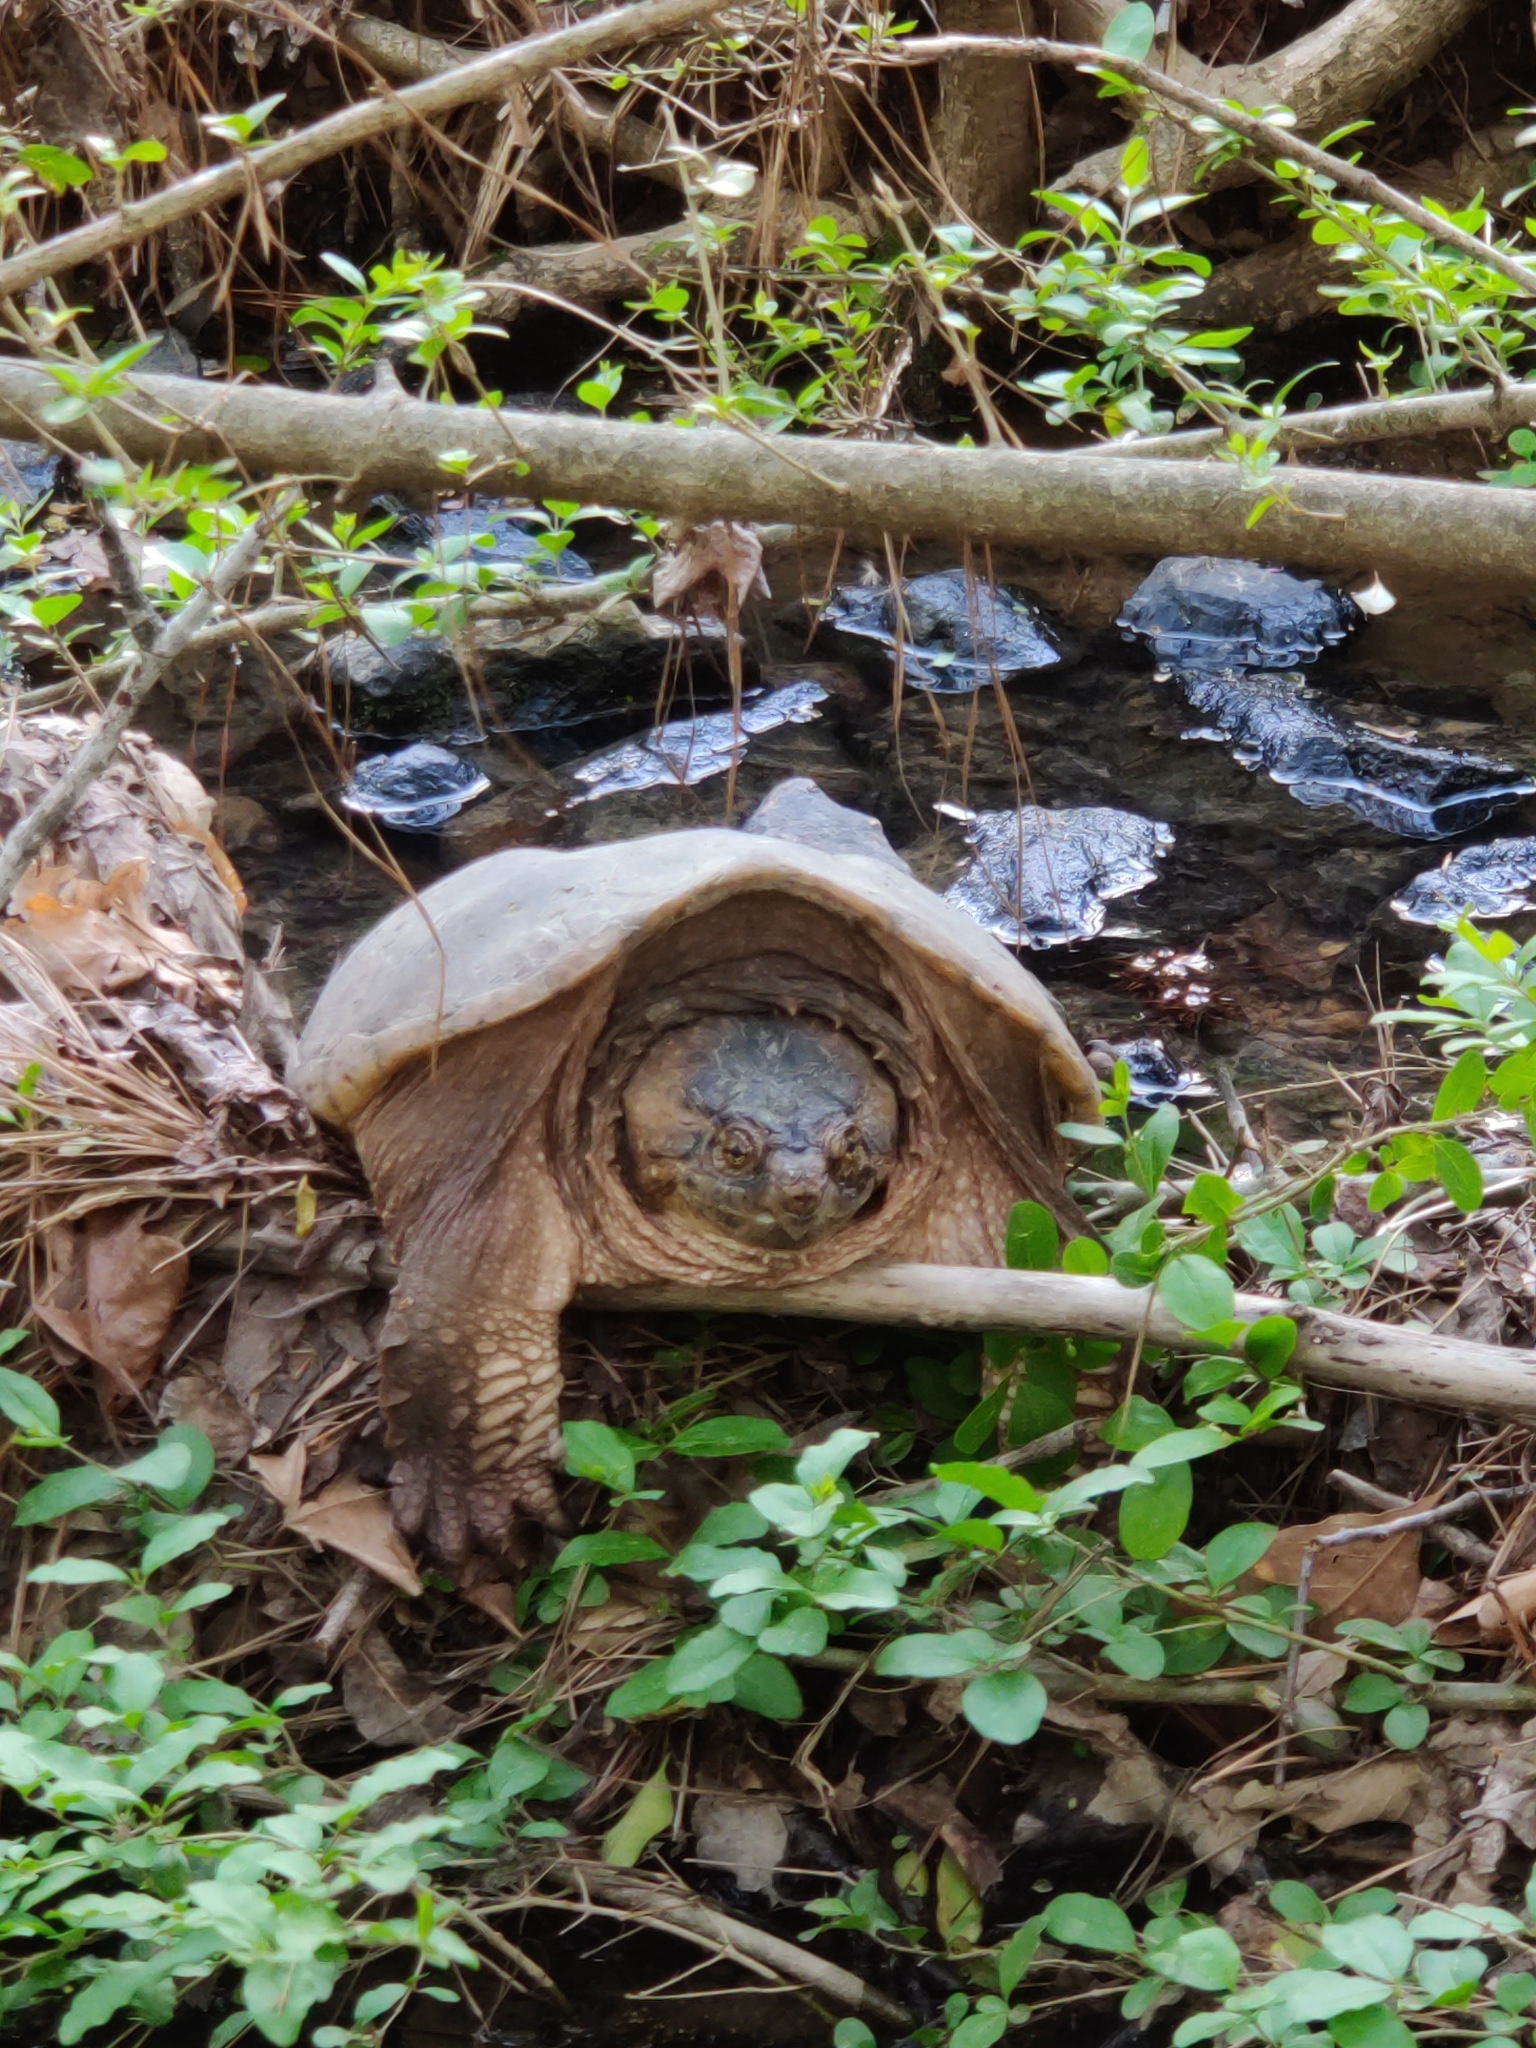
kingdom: Animalia
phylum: Chordata
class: Testudines
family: Chelydridae
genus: Chelydra
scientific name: Chelydra serpentina
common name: Common snapping turtle
